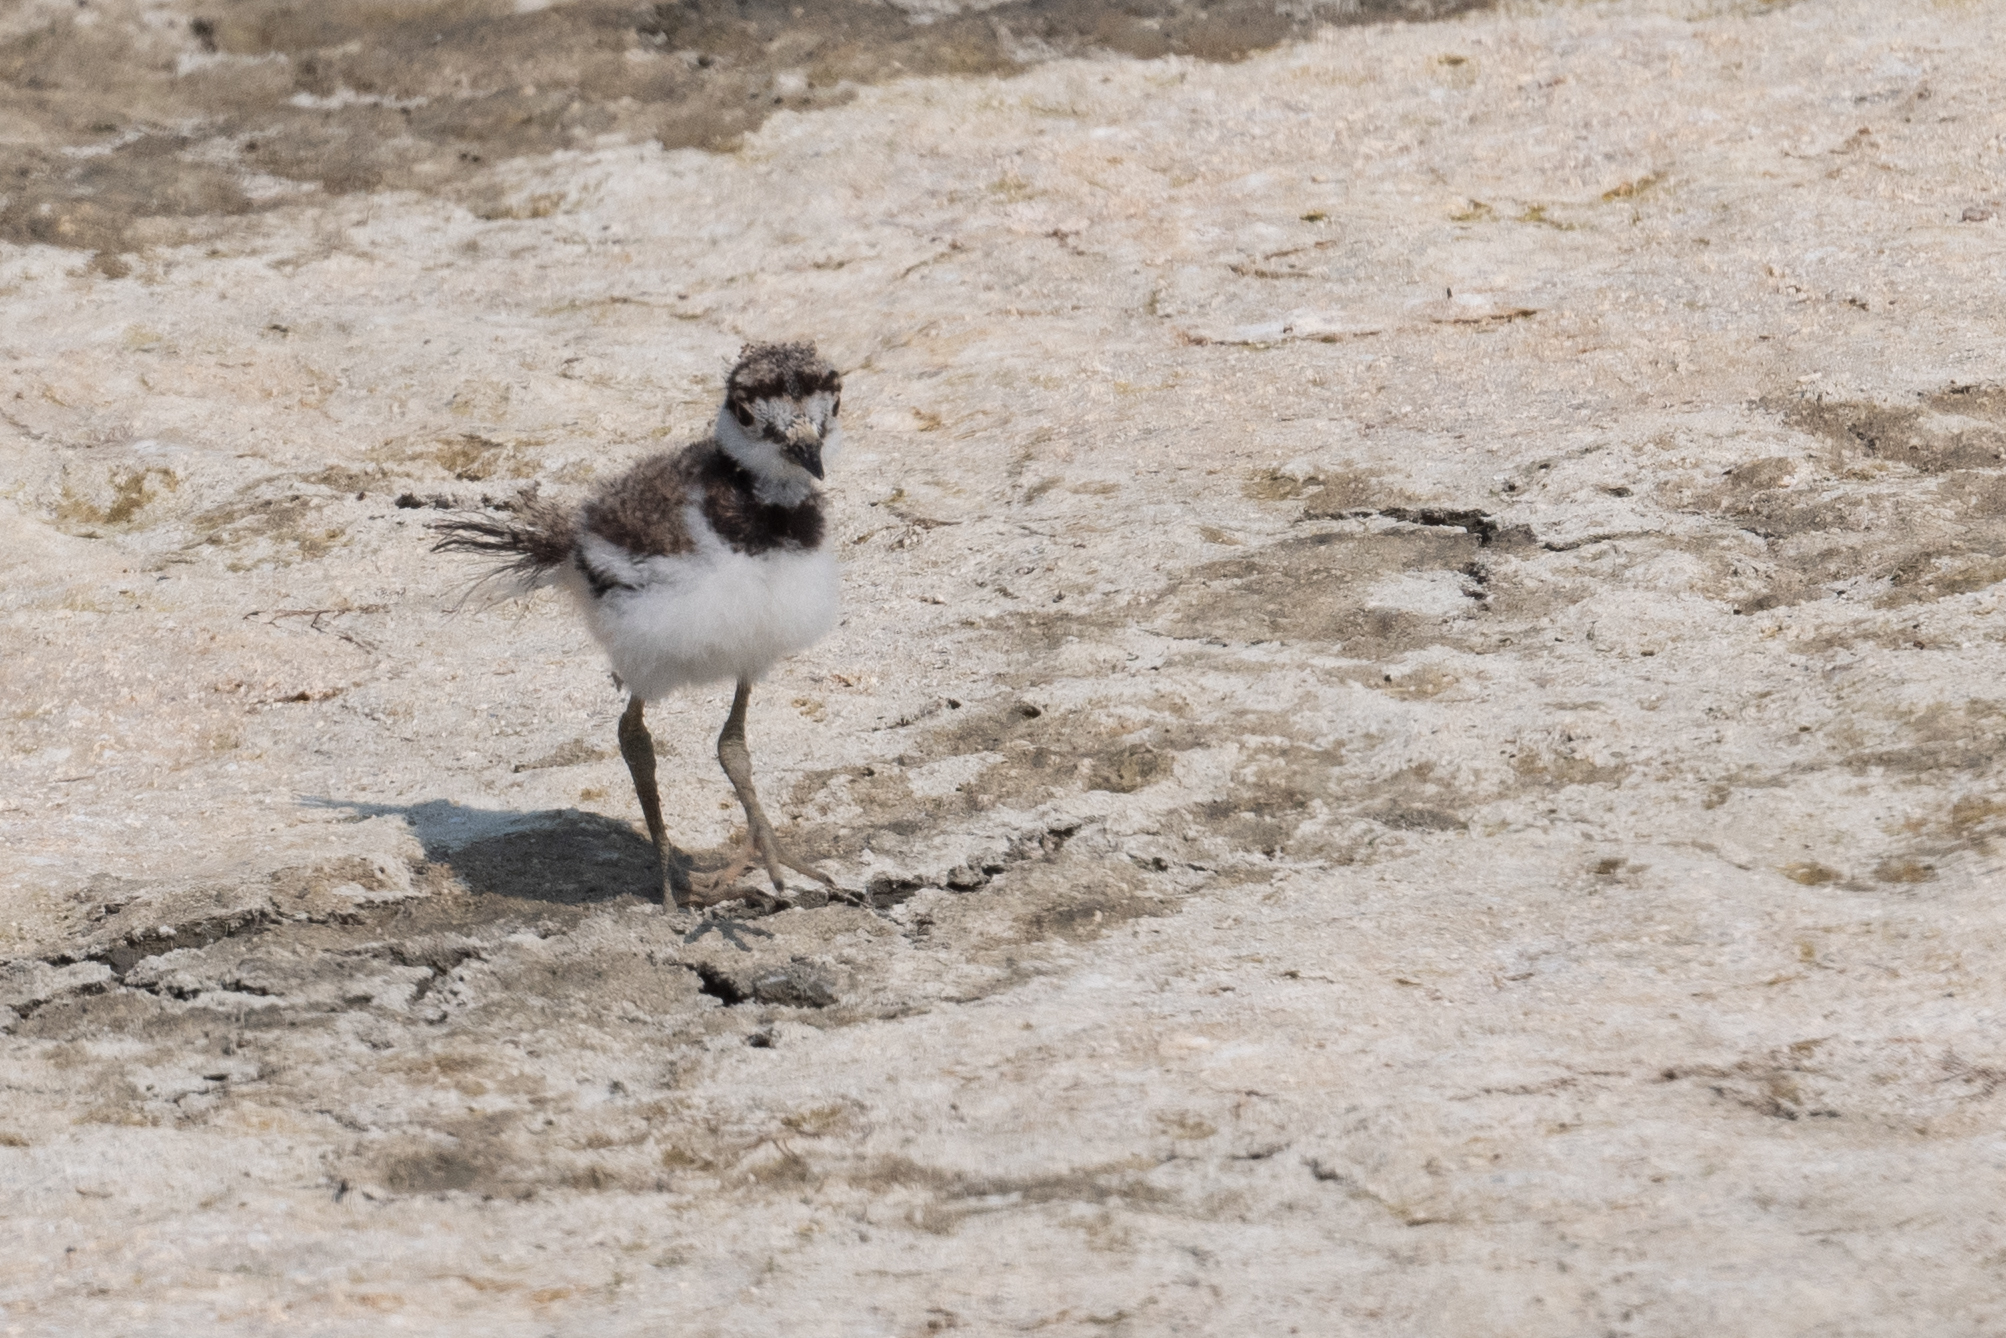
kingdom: Animalia
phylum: Chordata
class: Aves
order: Charadriiformes
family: Charadriidae
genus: Charadrius
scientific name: Charadrius vociferus
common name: Killdeer
